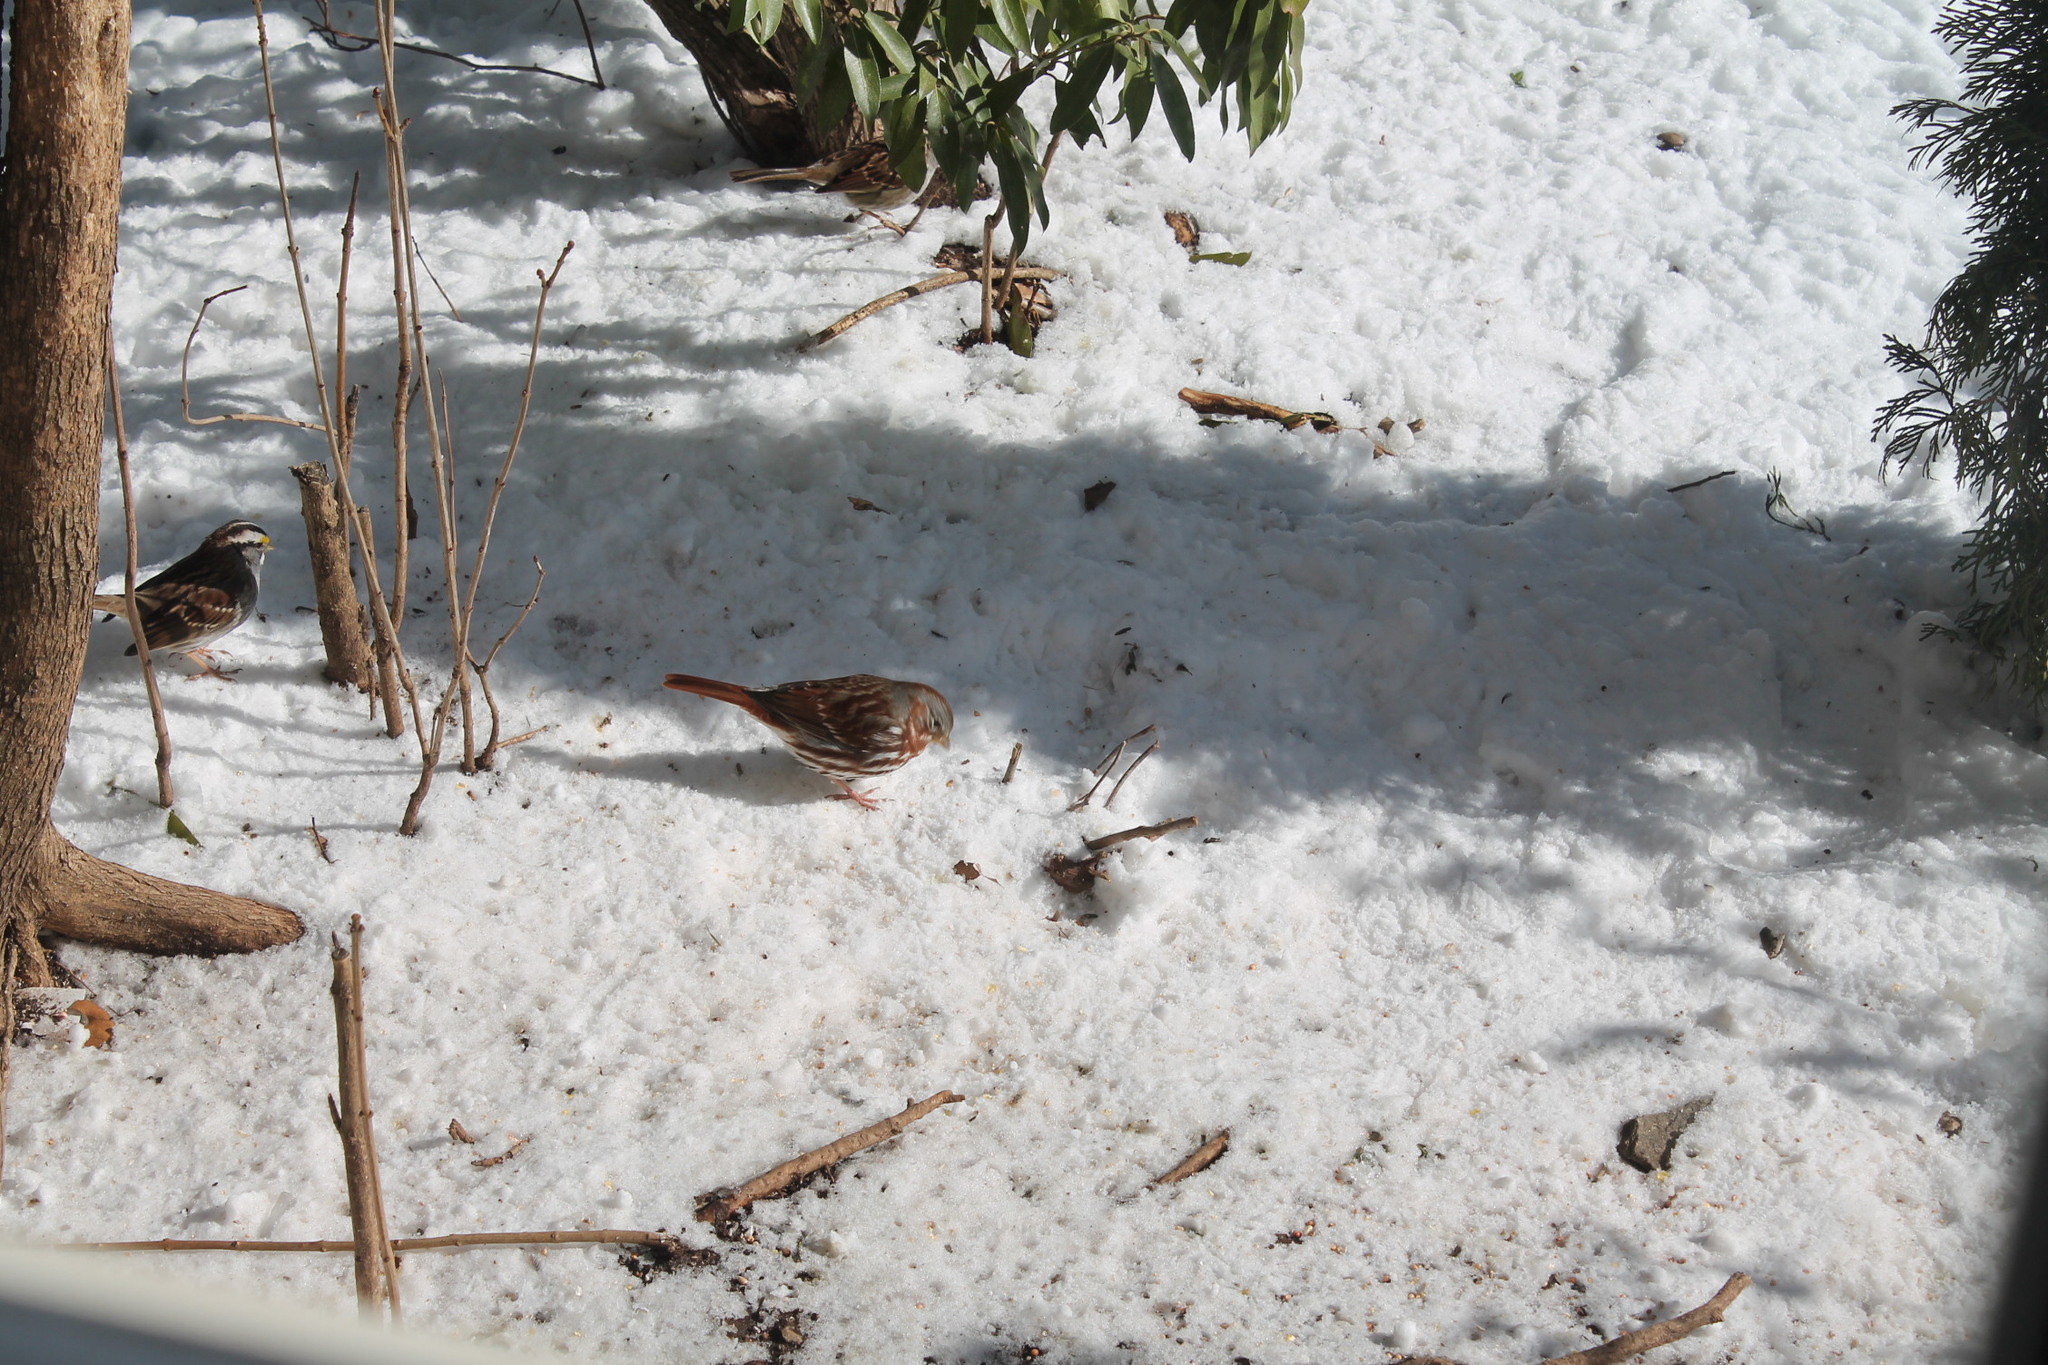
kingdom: Animalia
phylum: Chordata
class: Aves
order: Passeriformes
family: Passerellidae
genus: Passerella
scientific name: Passerella iliaca
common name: Fox sparrow
